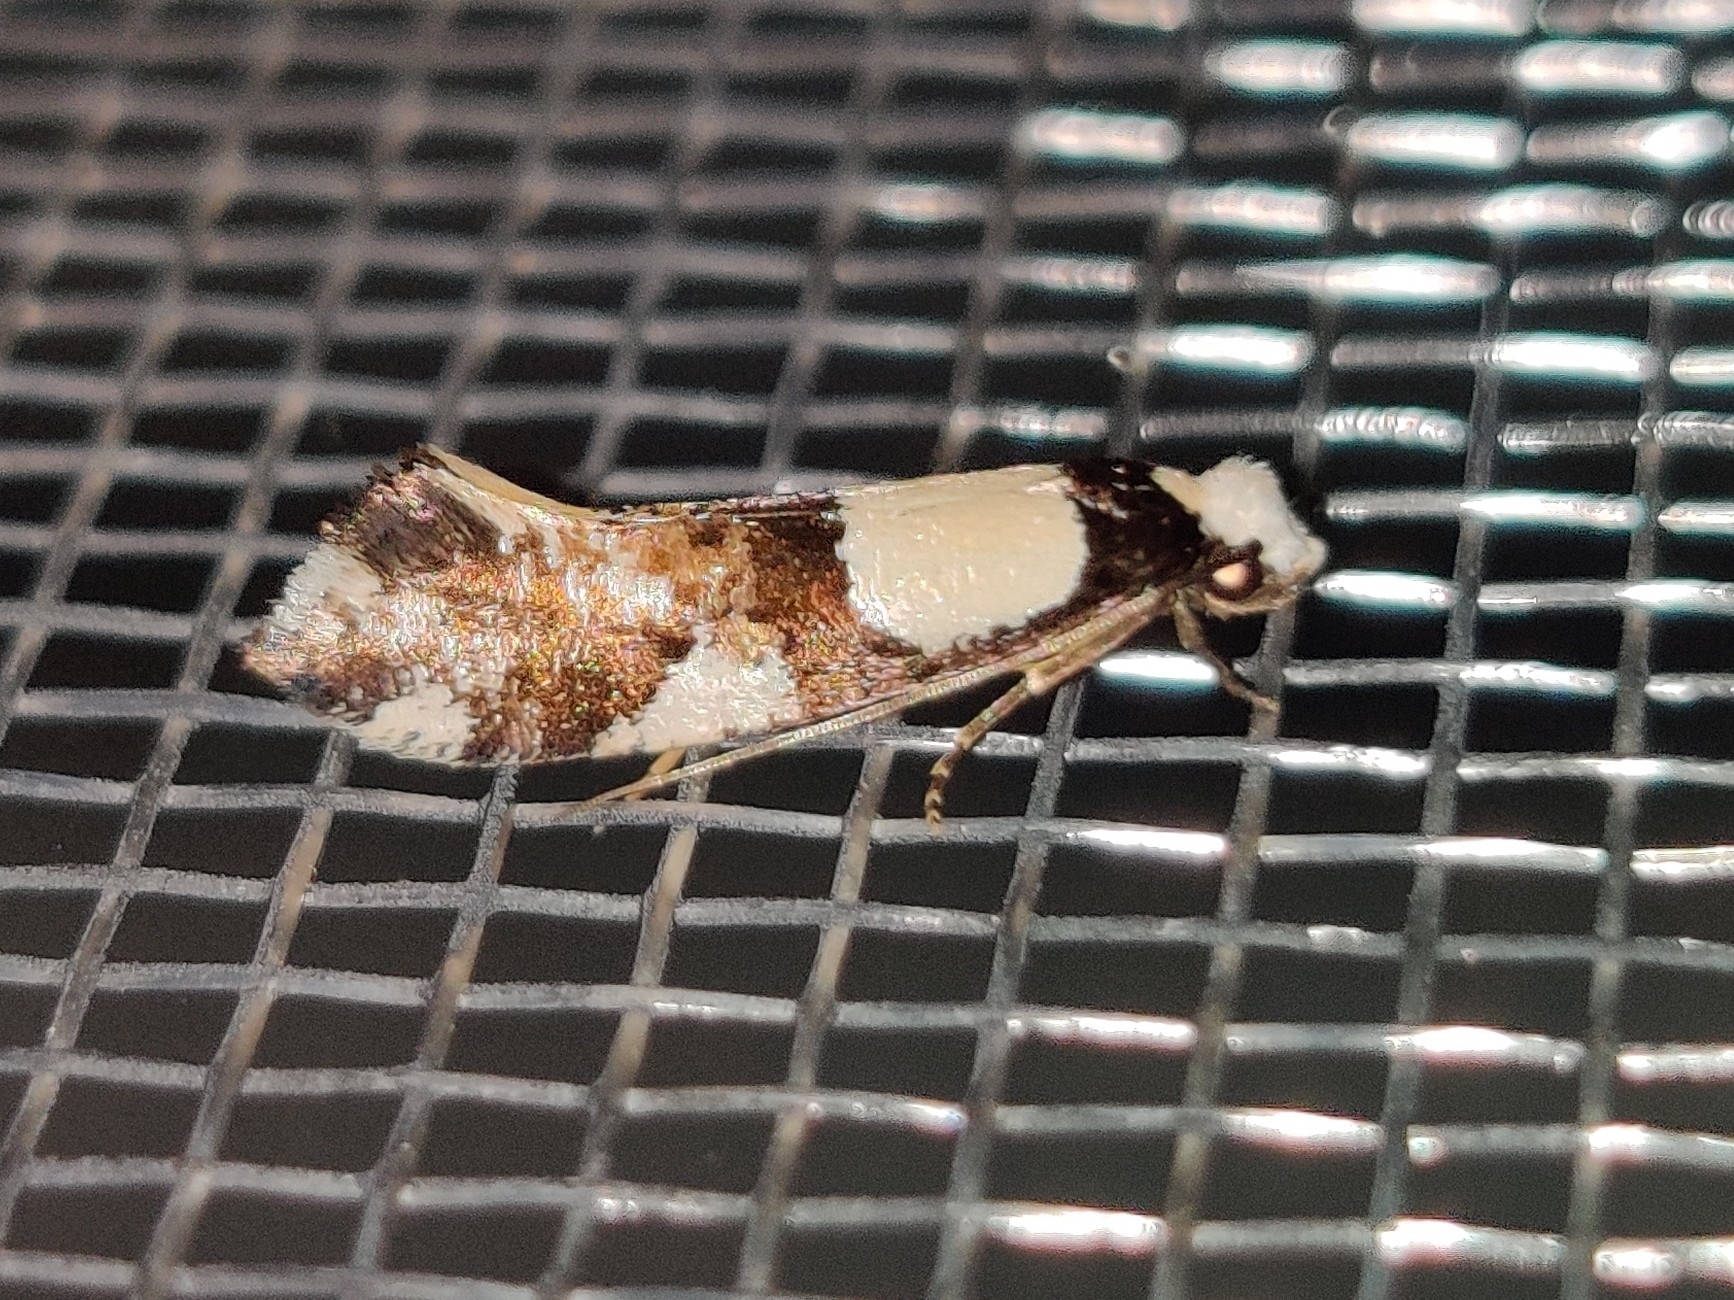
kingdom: Animalia
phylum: Arthropoda
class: Insecta
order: Lepidoptera
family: Tineidae
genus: Monopis
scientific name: Monopis icterogastra
